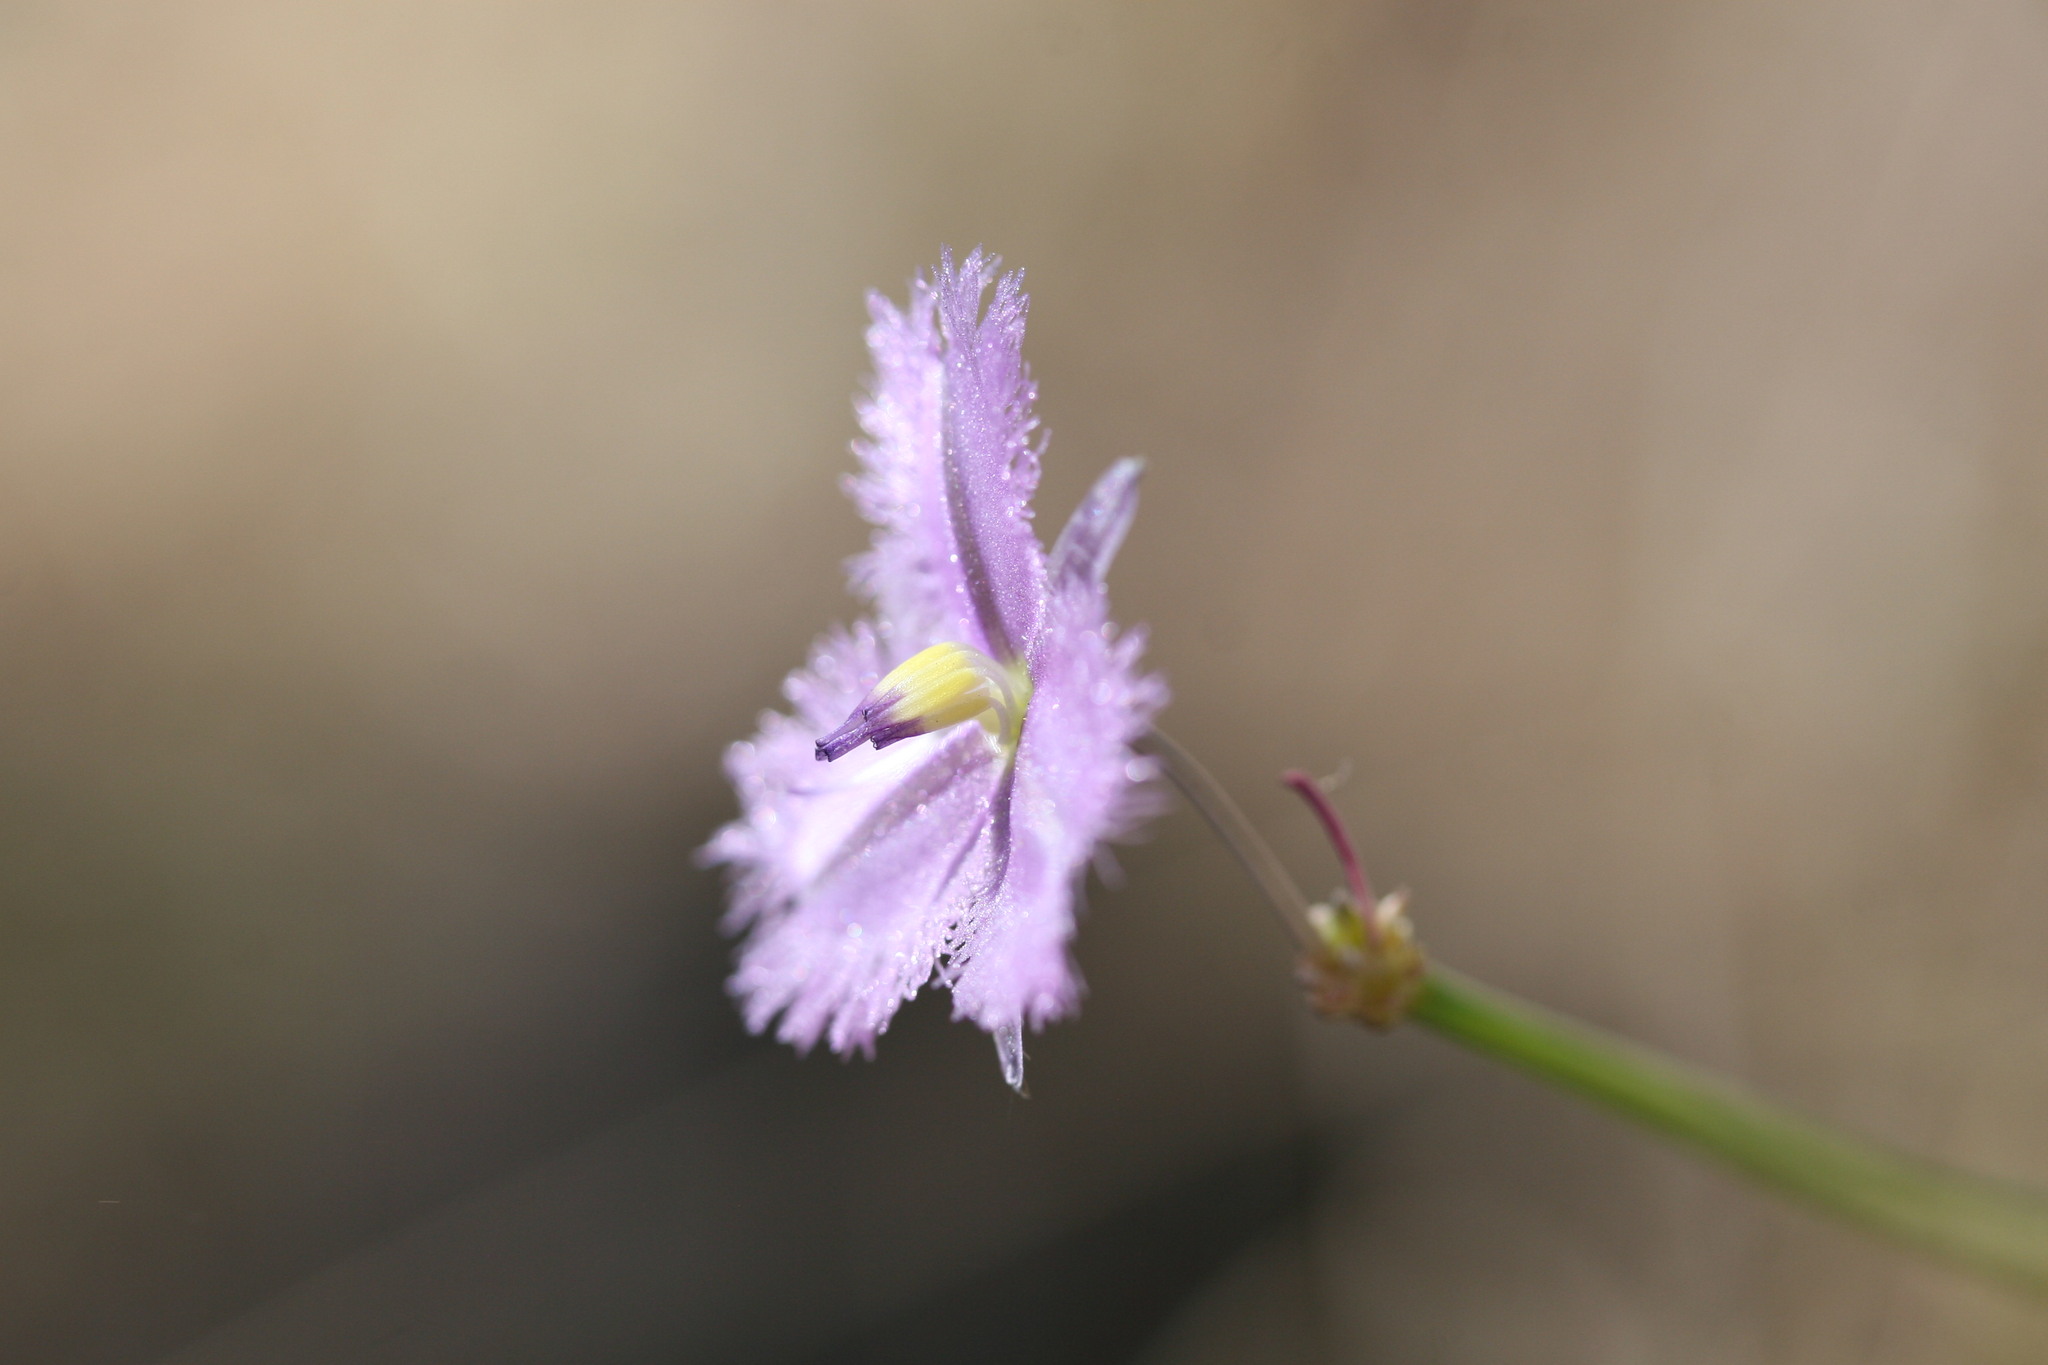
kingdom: Plantae
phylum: Tracheophyta
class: Liliopsida
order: Asparagales
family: Asparagaceae
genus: Thysanotus
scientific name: Thysanotus chinensis
